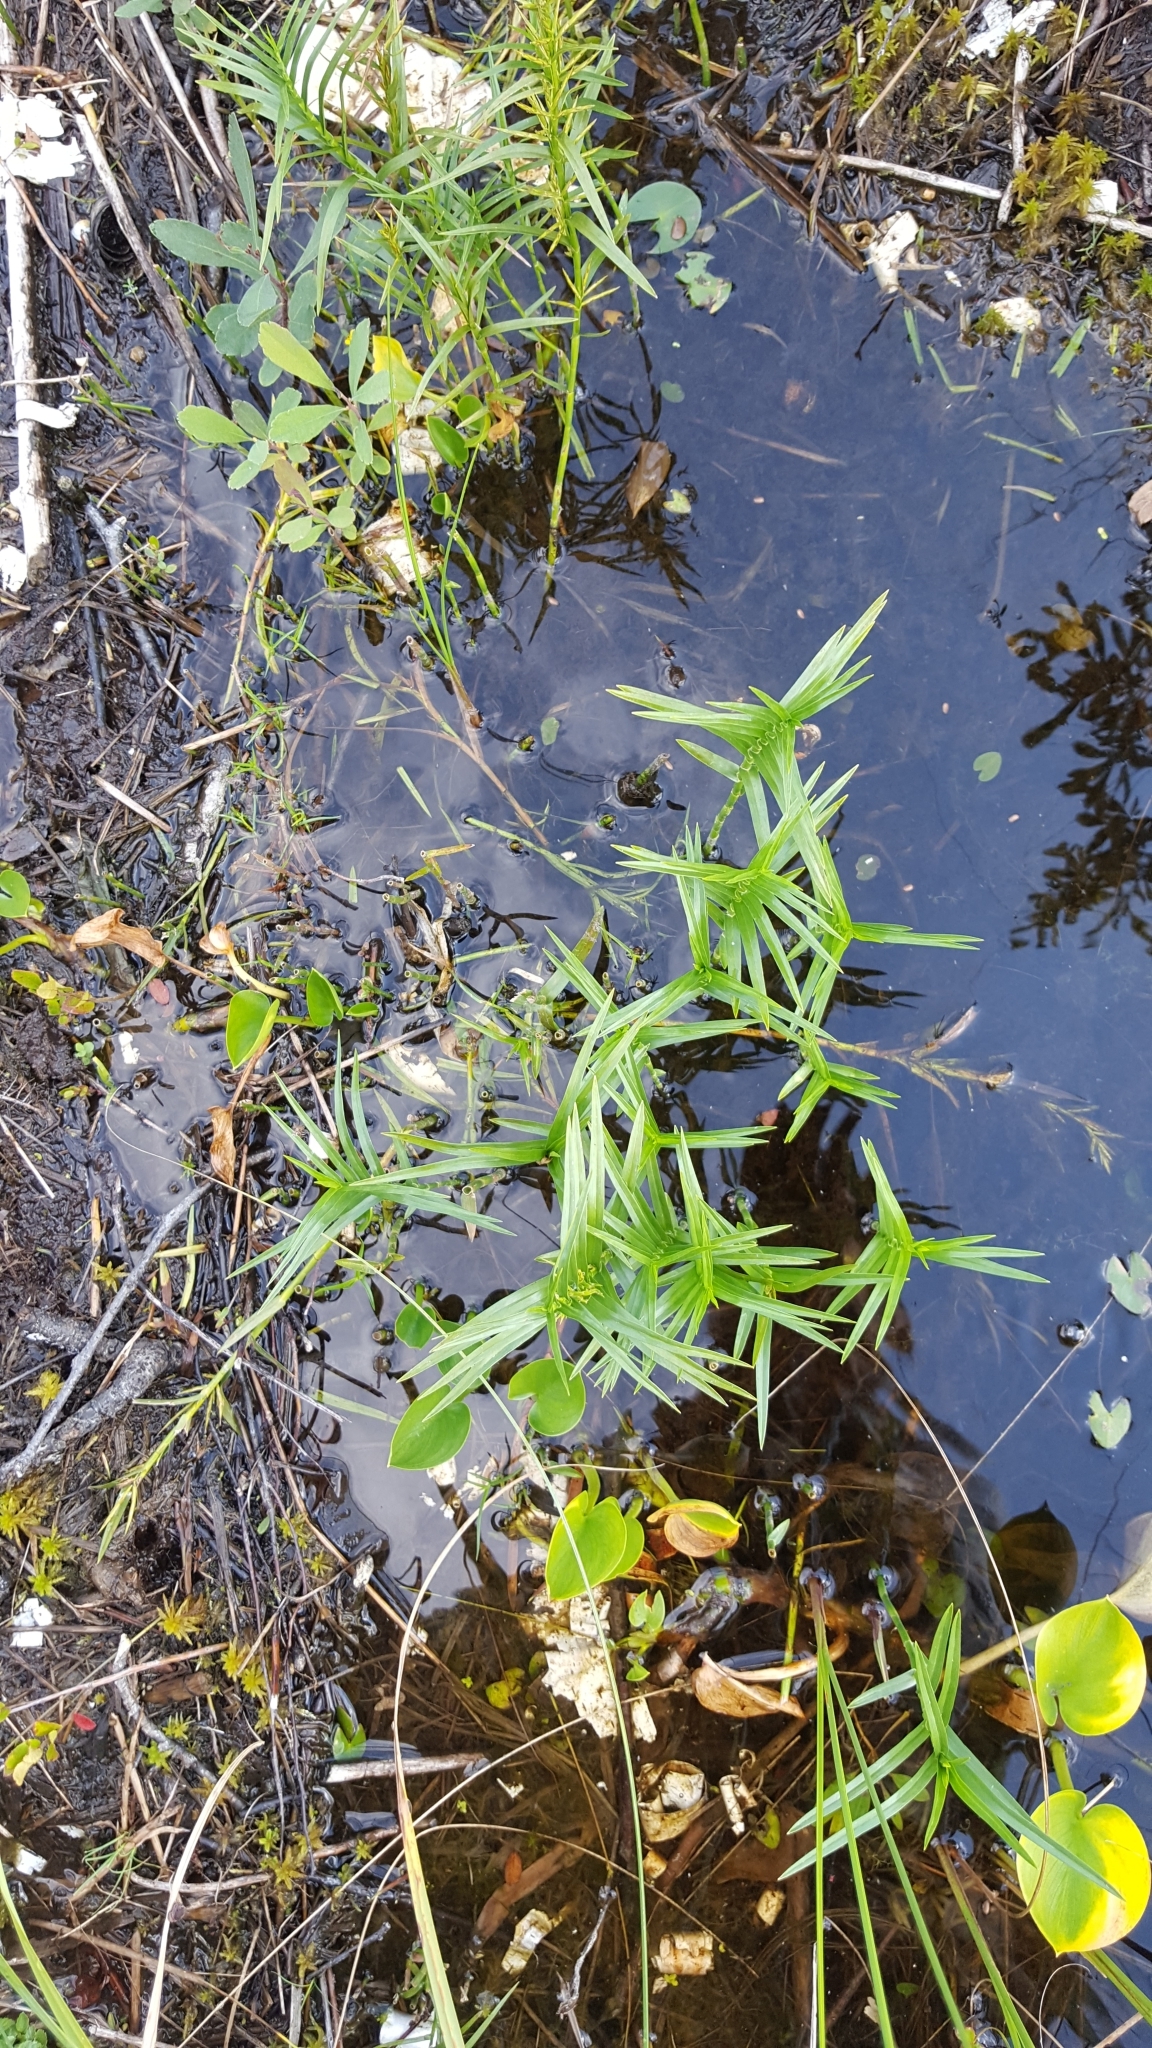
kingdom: Plantae
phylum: Tracheophyta
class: Liliopsida
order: Poales
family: Cyperaceae
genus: Dulichium
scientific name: Dulichium arundinaceum
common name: Three-way sedge
